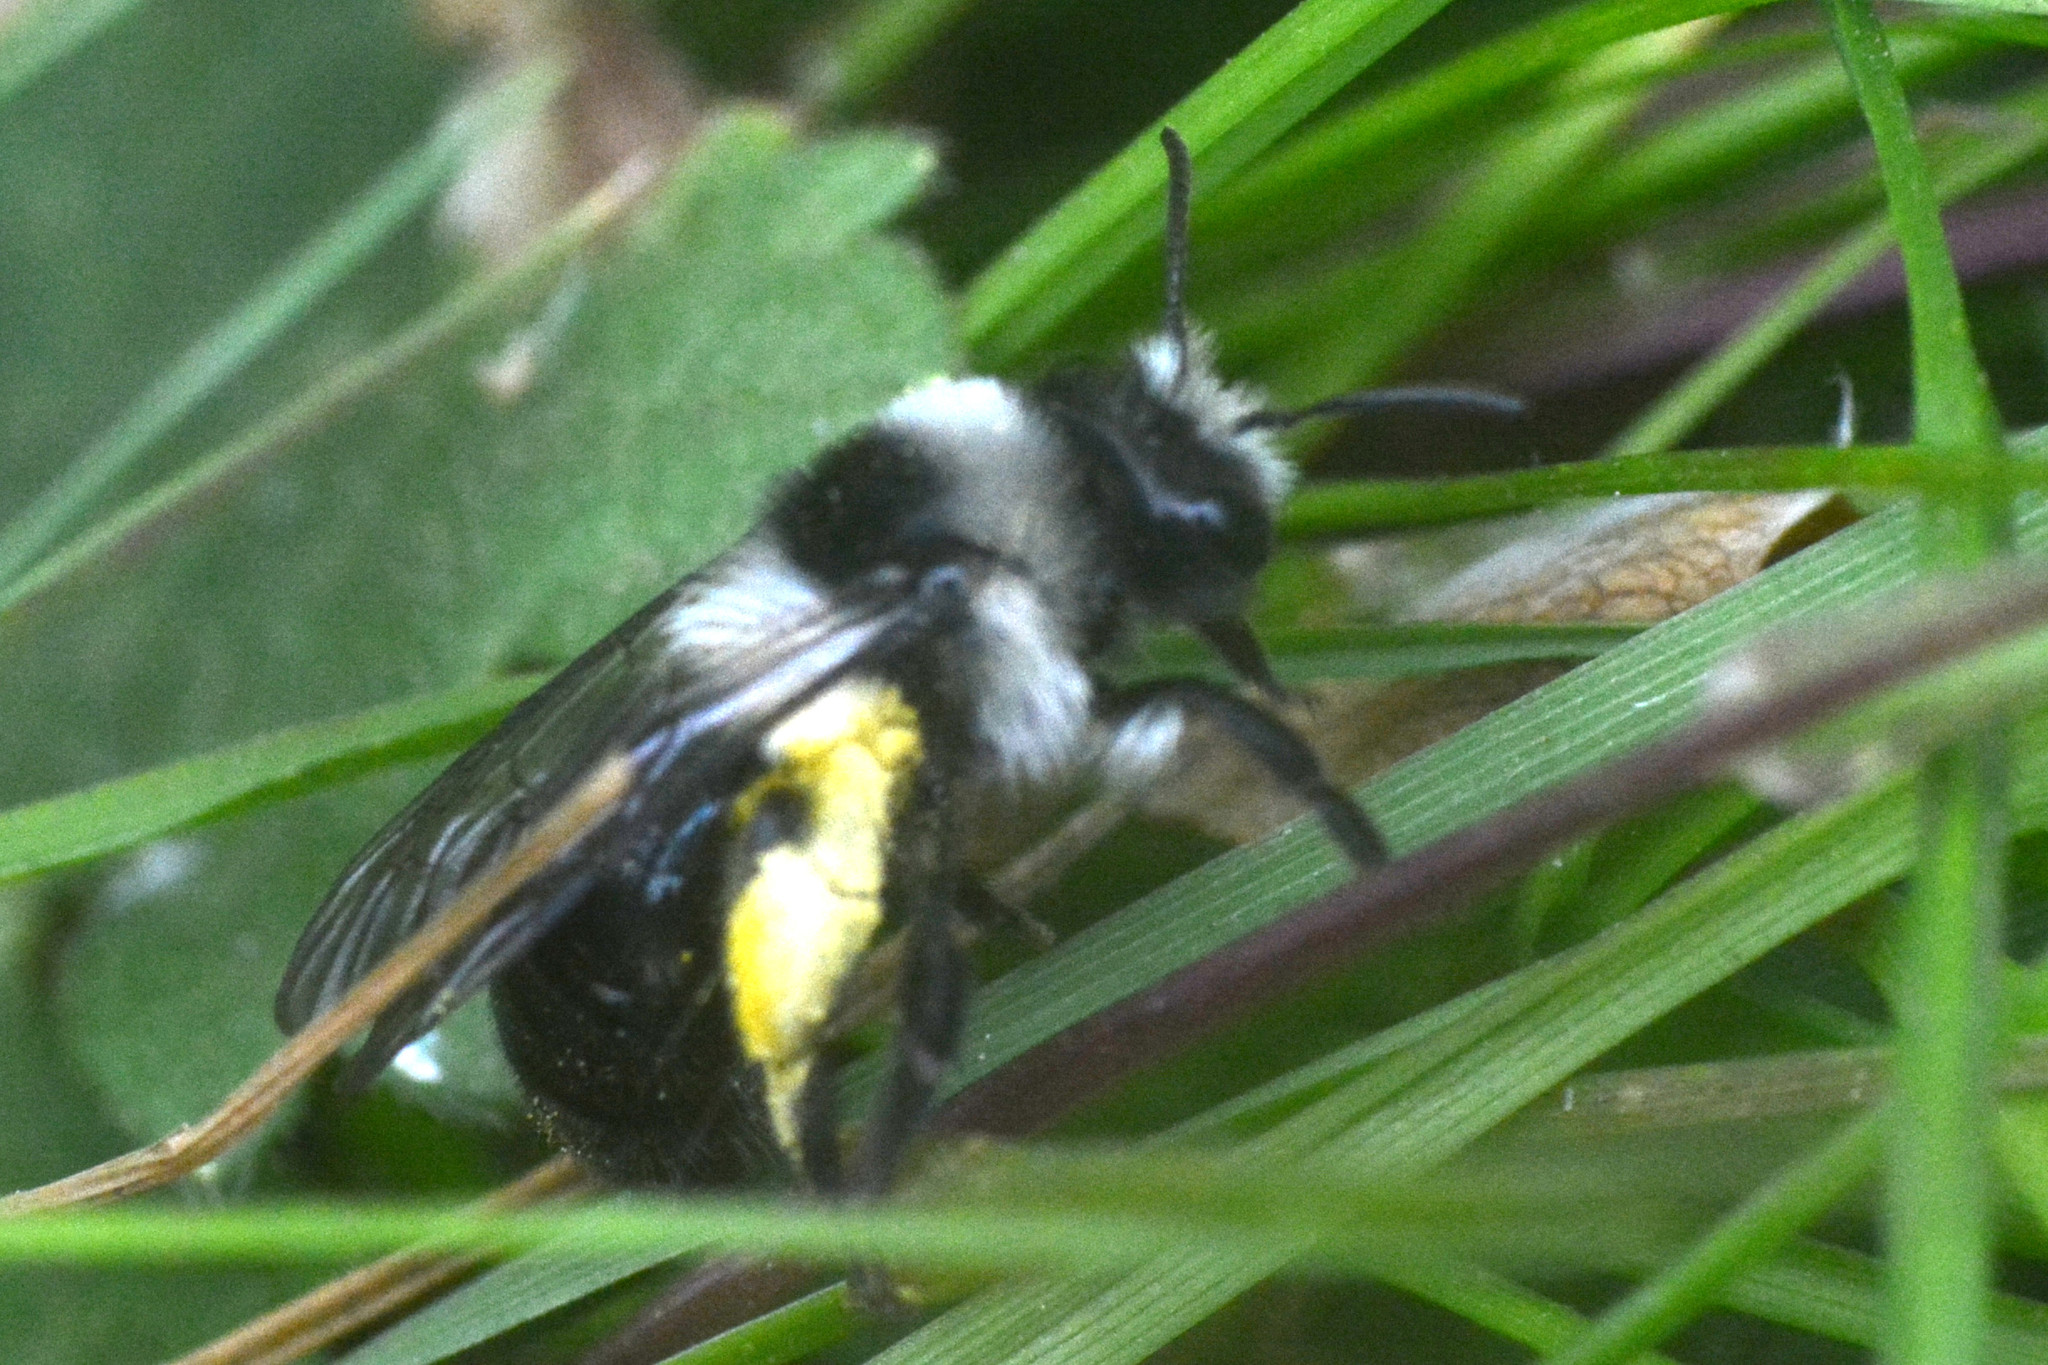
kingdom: Animalia
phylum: Arthropoda
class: Insecta
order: Hymenoptera
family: Andrenidae
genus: Andrena
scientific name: Andrena cineraria
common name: Ashy mining bee
